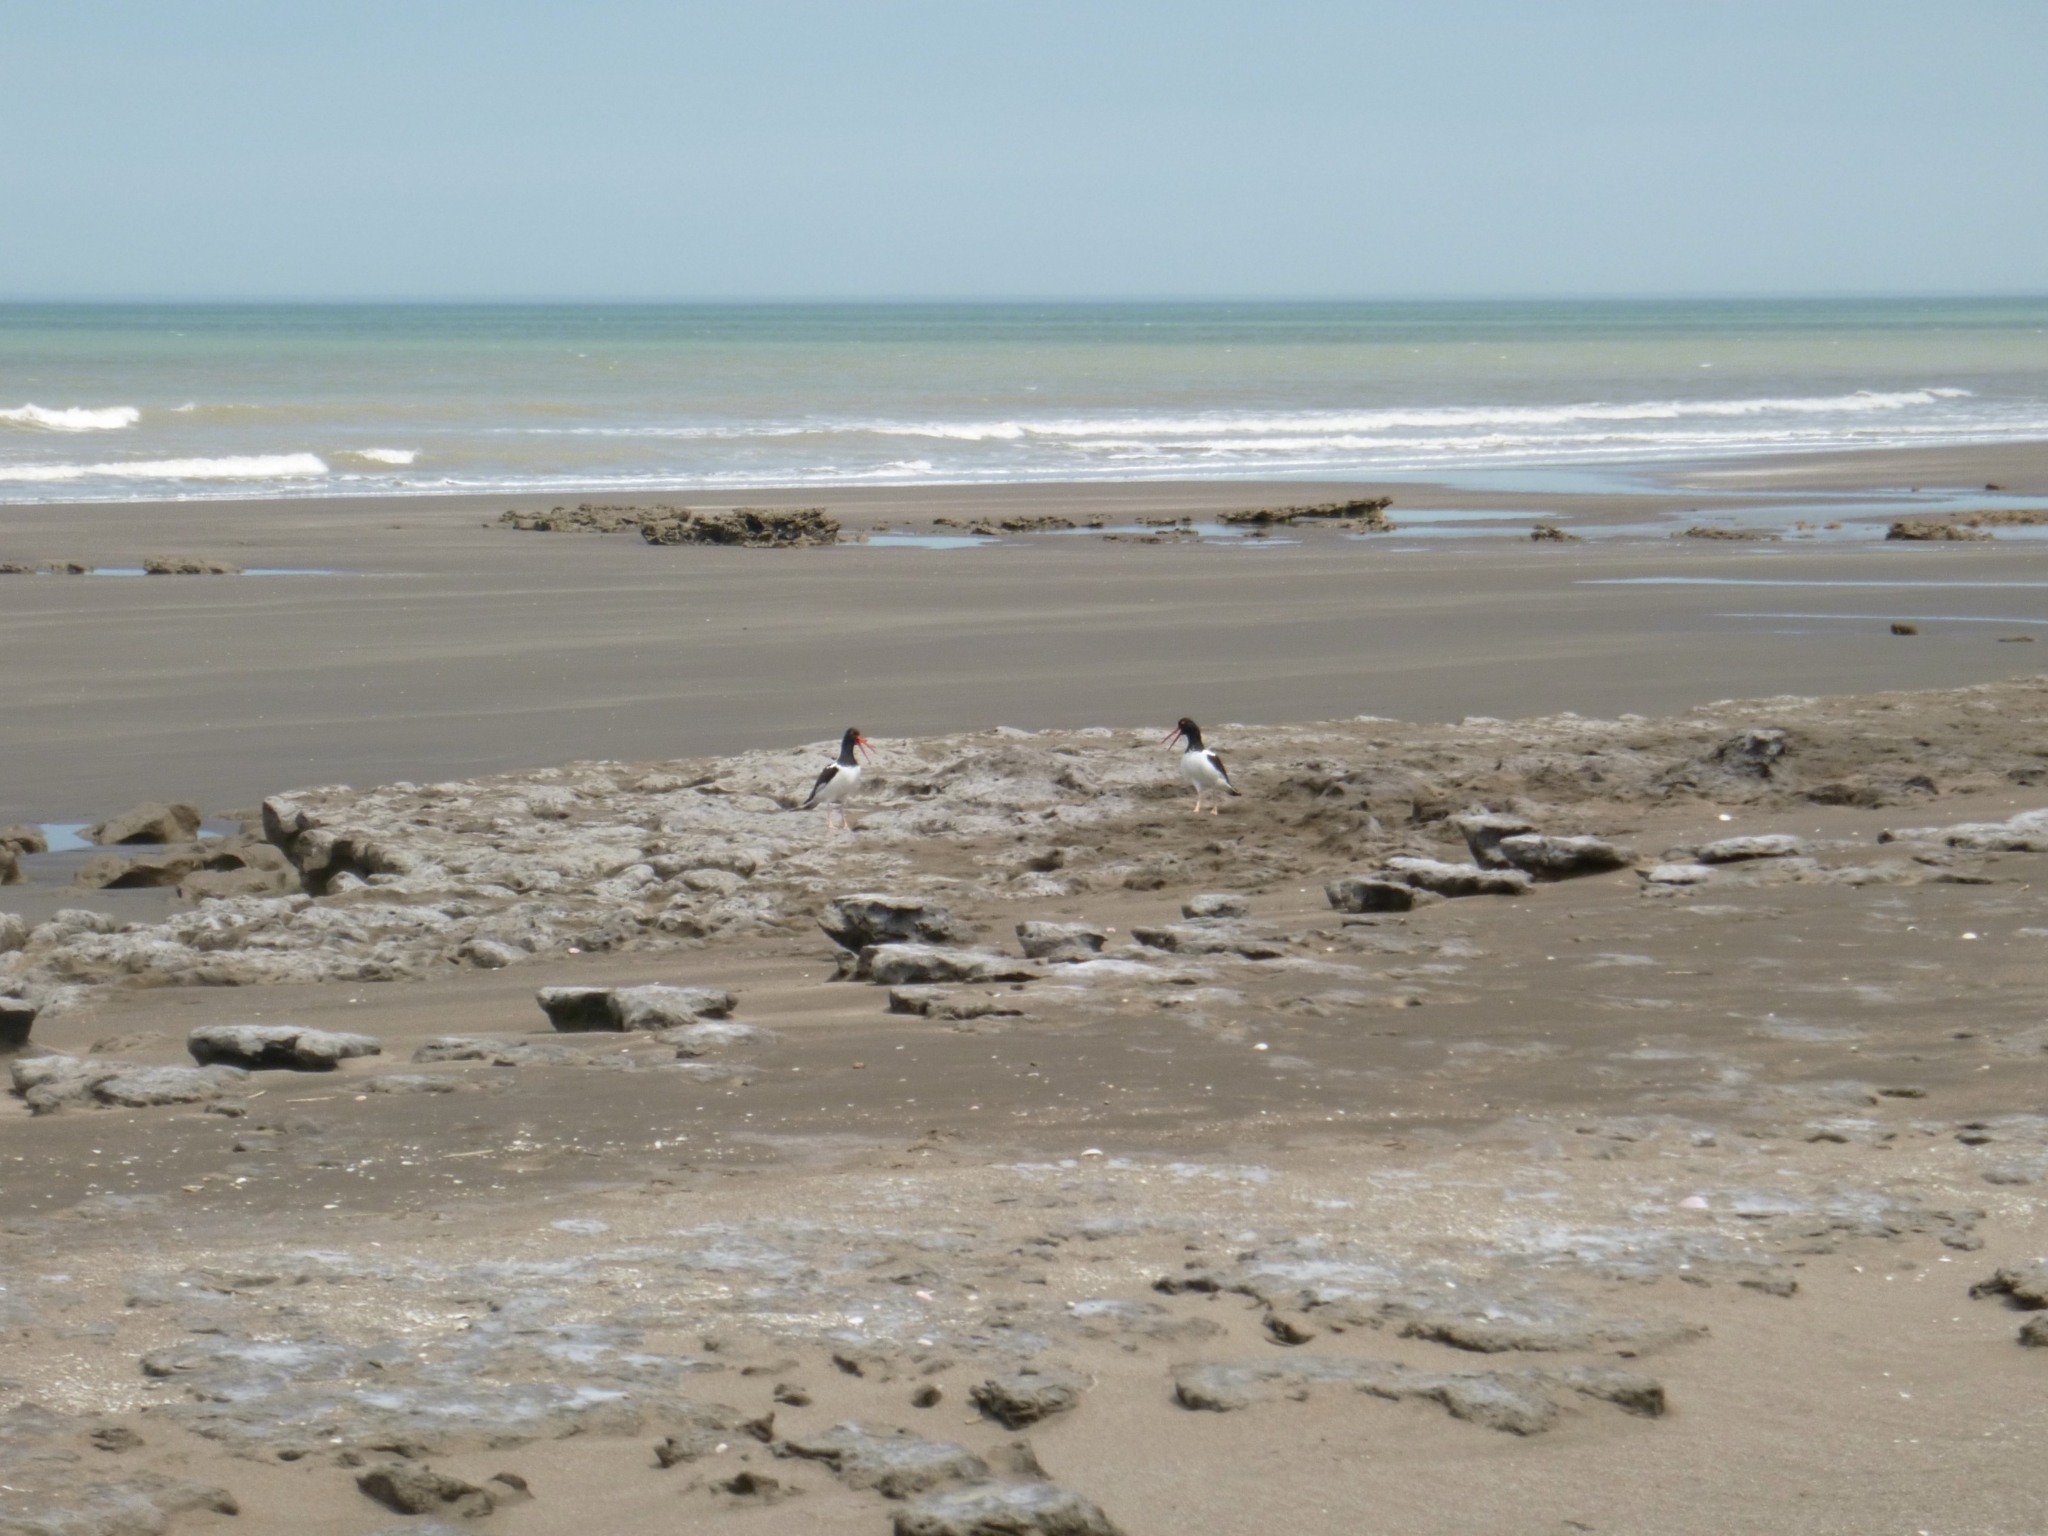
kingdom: Animalia
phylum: Chordata
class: Aves
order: Charadriiformes
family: Haematopodidae
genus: Haematopus
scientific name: Haematopus palliatus
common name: American oystercatcher
